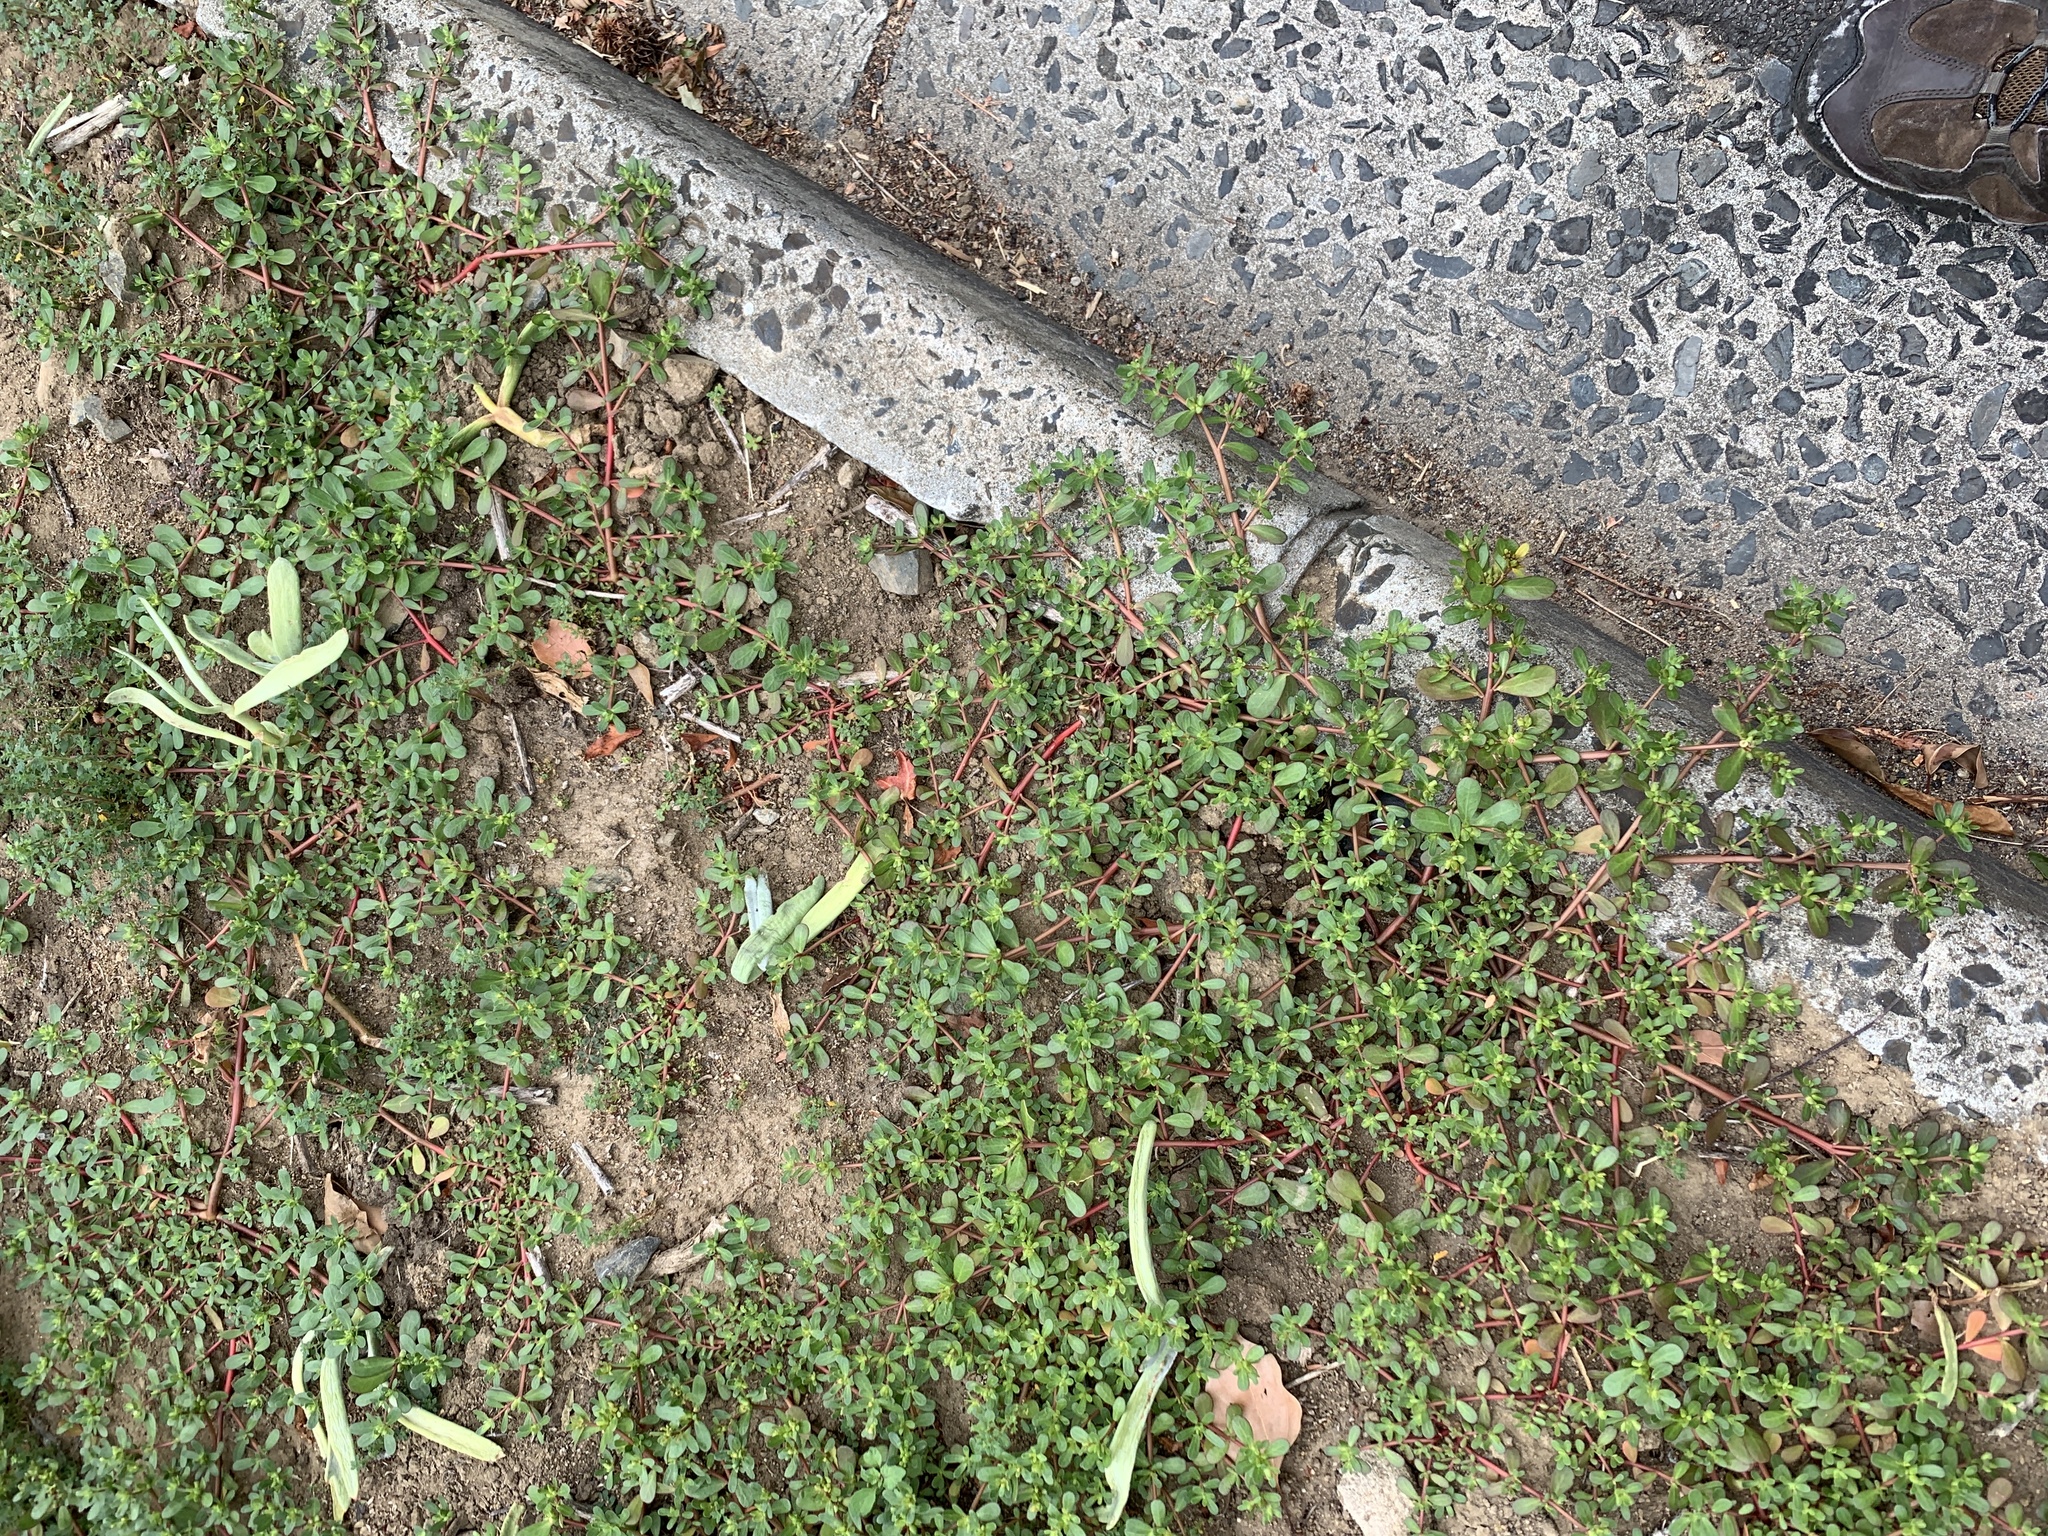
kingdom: Plantae
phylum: Tracheophyta
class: Magnoliopsida
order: Caryophyllales
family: Portulacaceae
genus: Portulaca
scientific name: Portulaca oleracea
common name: Common purslane
